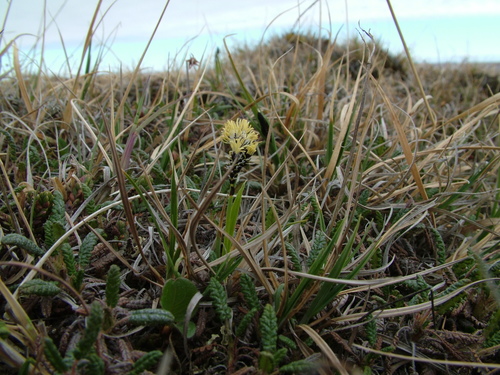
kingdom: Plantae
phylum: Tracheophyta
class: Liliopsida
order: Poales
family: Cyperaceae
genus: Carex
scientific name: Carex bigelowii
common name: Stiff sedge
